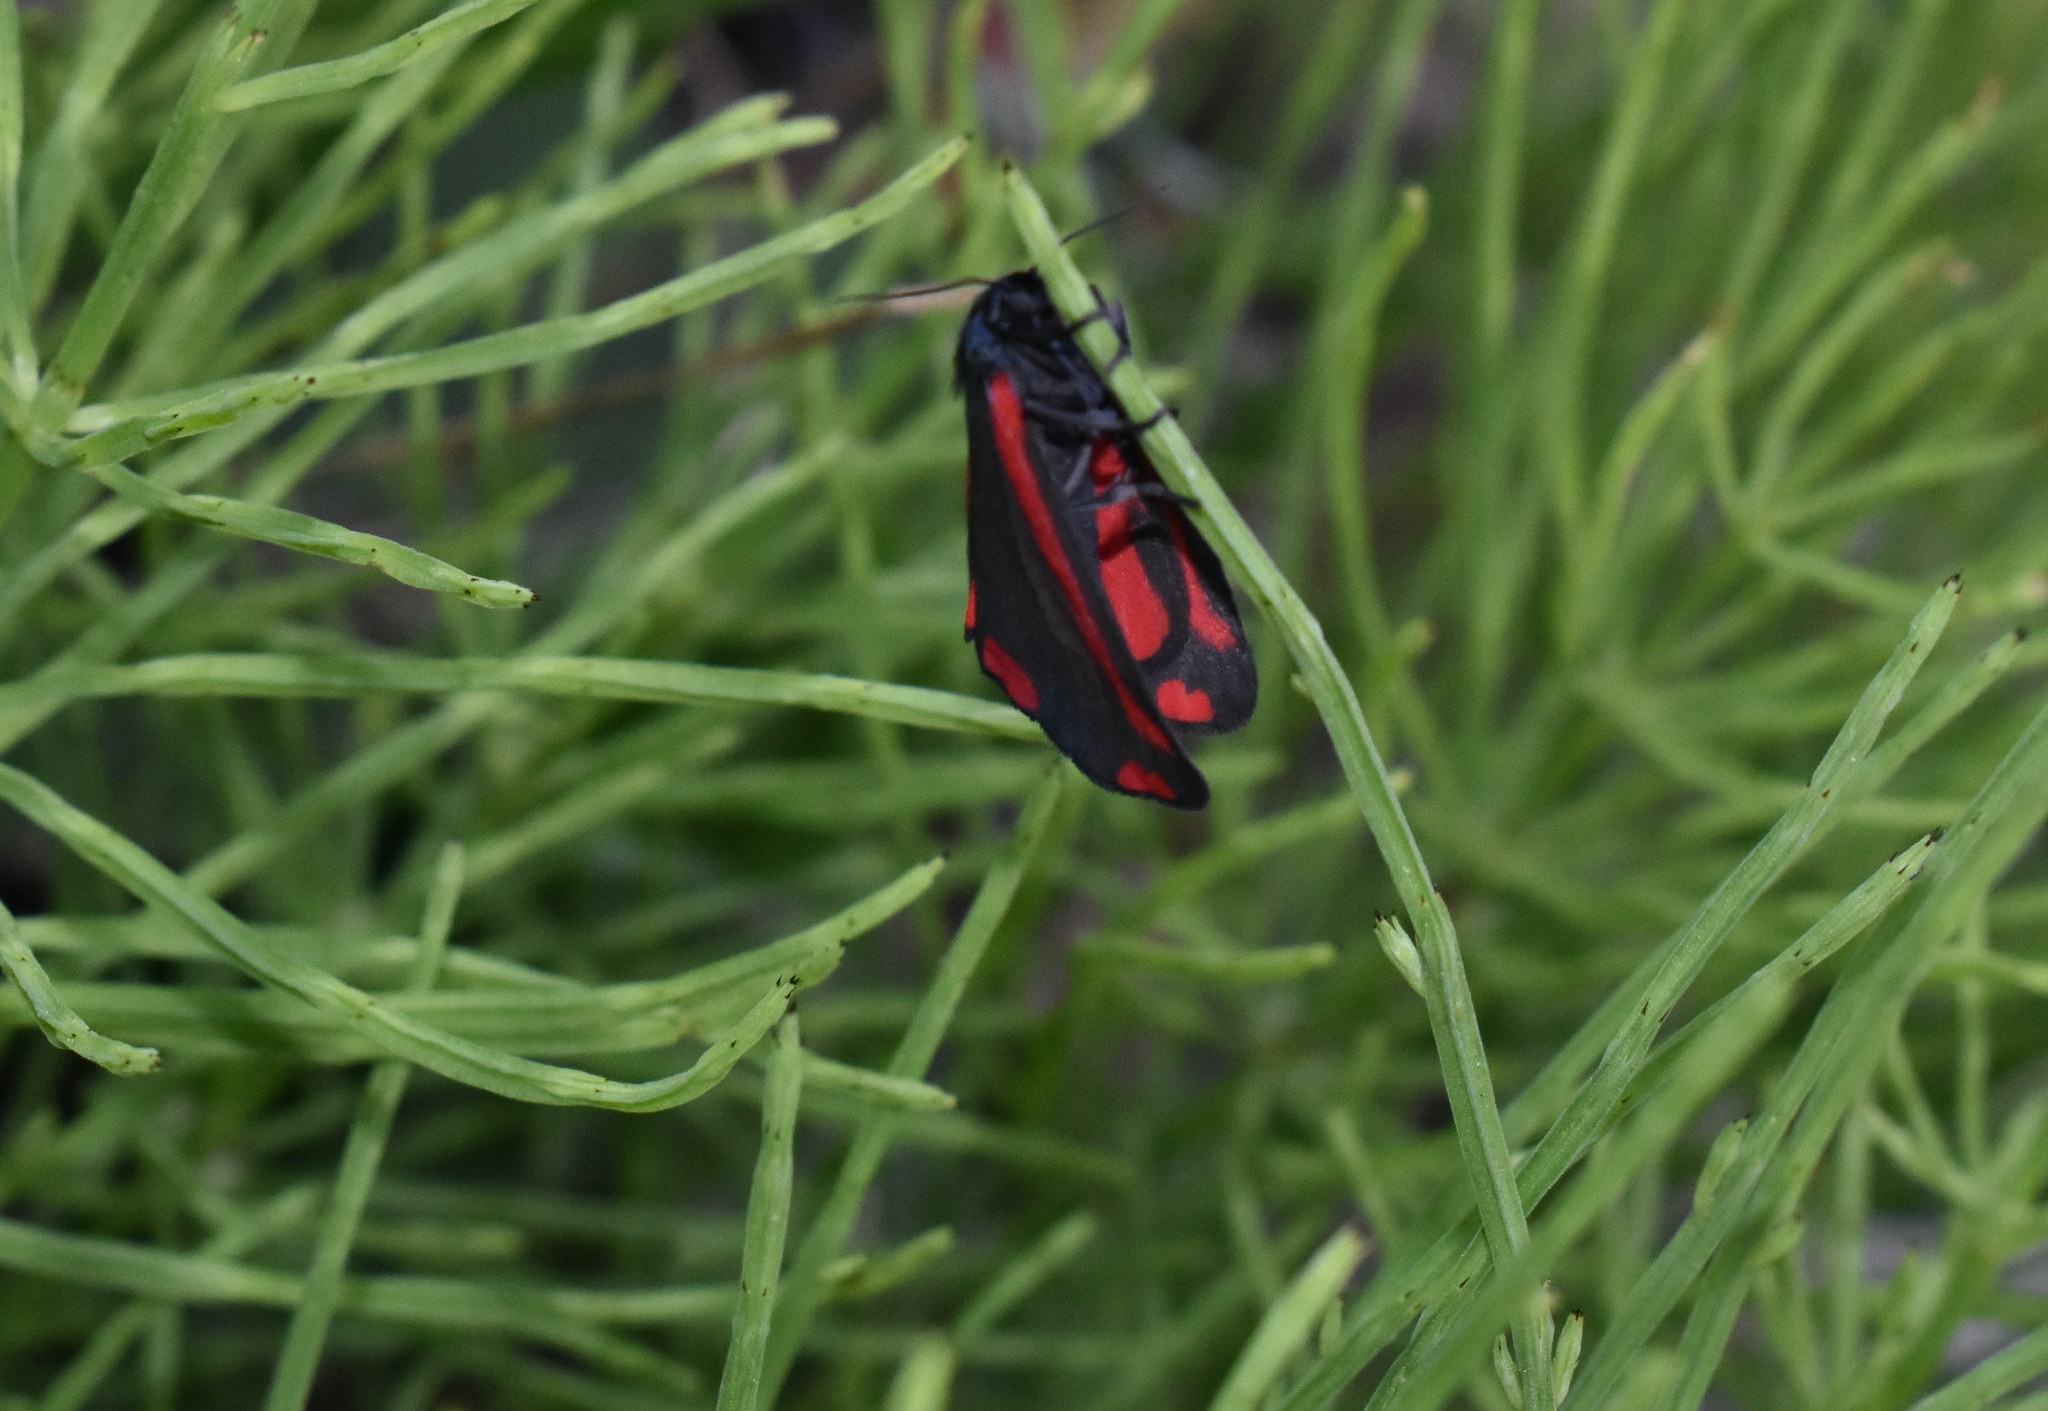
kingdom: Animalia
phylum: Arthropoda
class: Insecta
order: Lepidoptera
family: Erebidae
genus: Tyria
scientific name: Tyria jacobaeae
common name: Cinnabar
